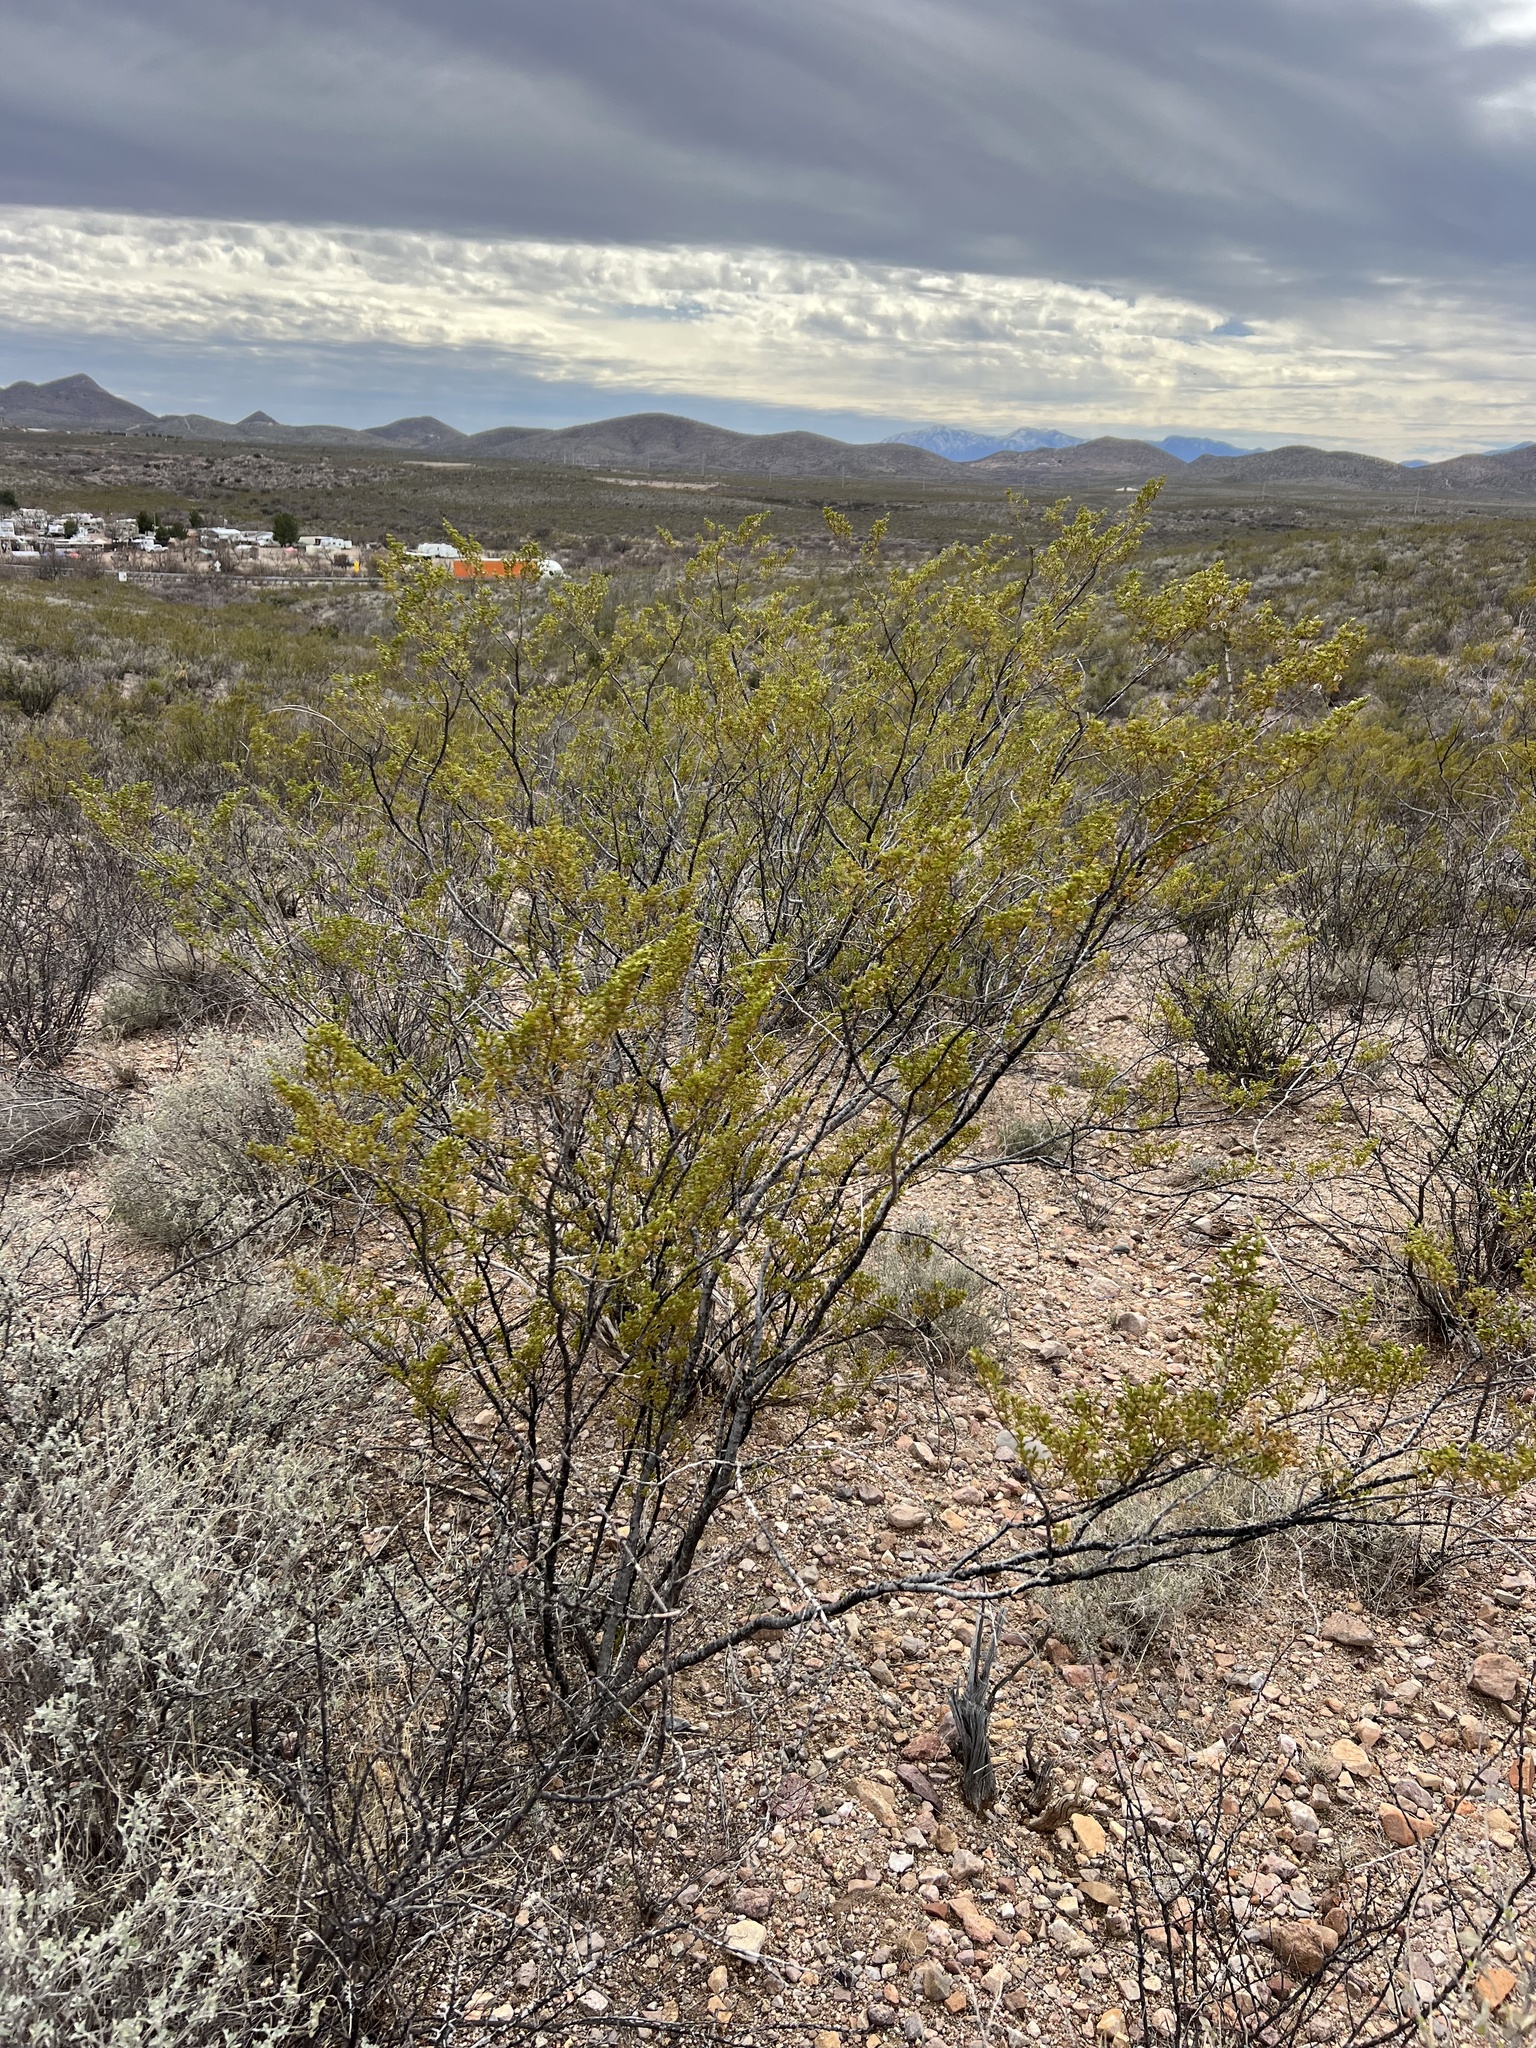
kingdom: Plantae
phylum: Tracheophyta
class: Magnoliopsida
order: Zygophyllales
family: Zygophyllaceae
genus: Larrea
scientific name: Larrea tridentata
